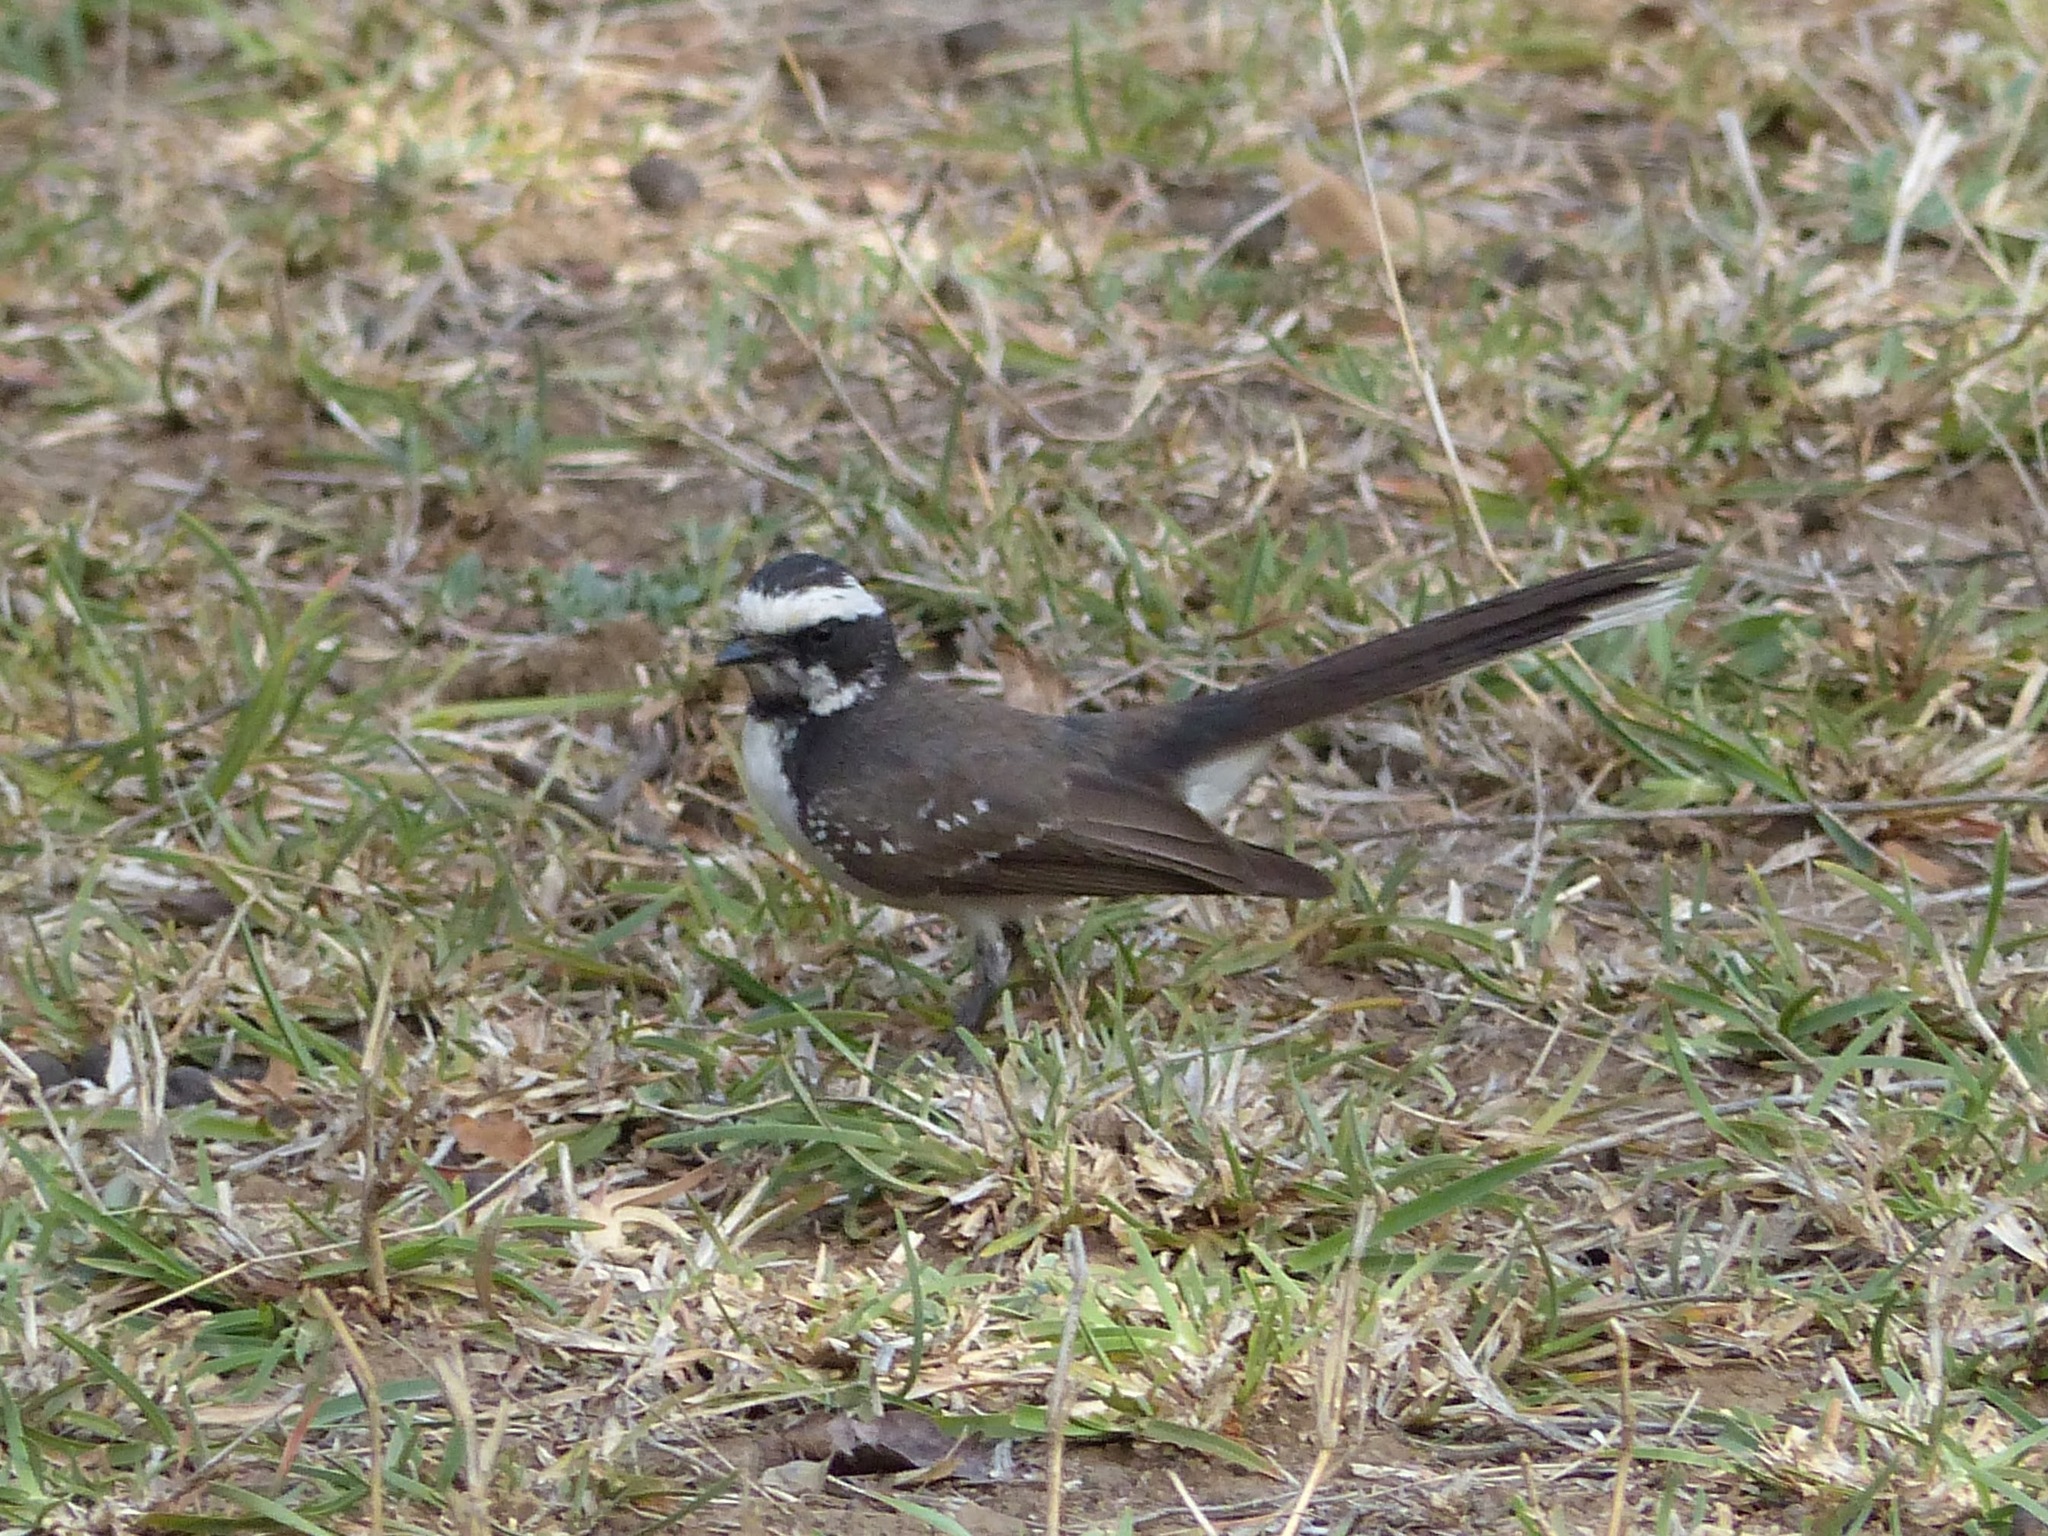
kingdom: Animalia
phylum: Chordata
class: Aves
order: Passeriformes
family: Rhipiduridae
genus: Rhipidura
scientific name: Rhipidura aureola
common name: White-browed fantail
